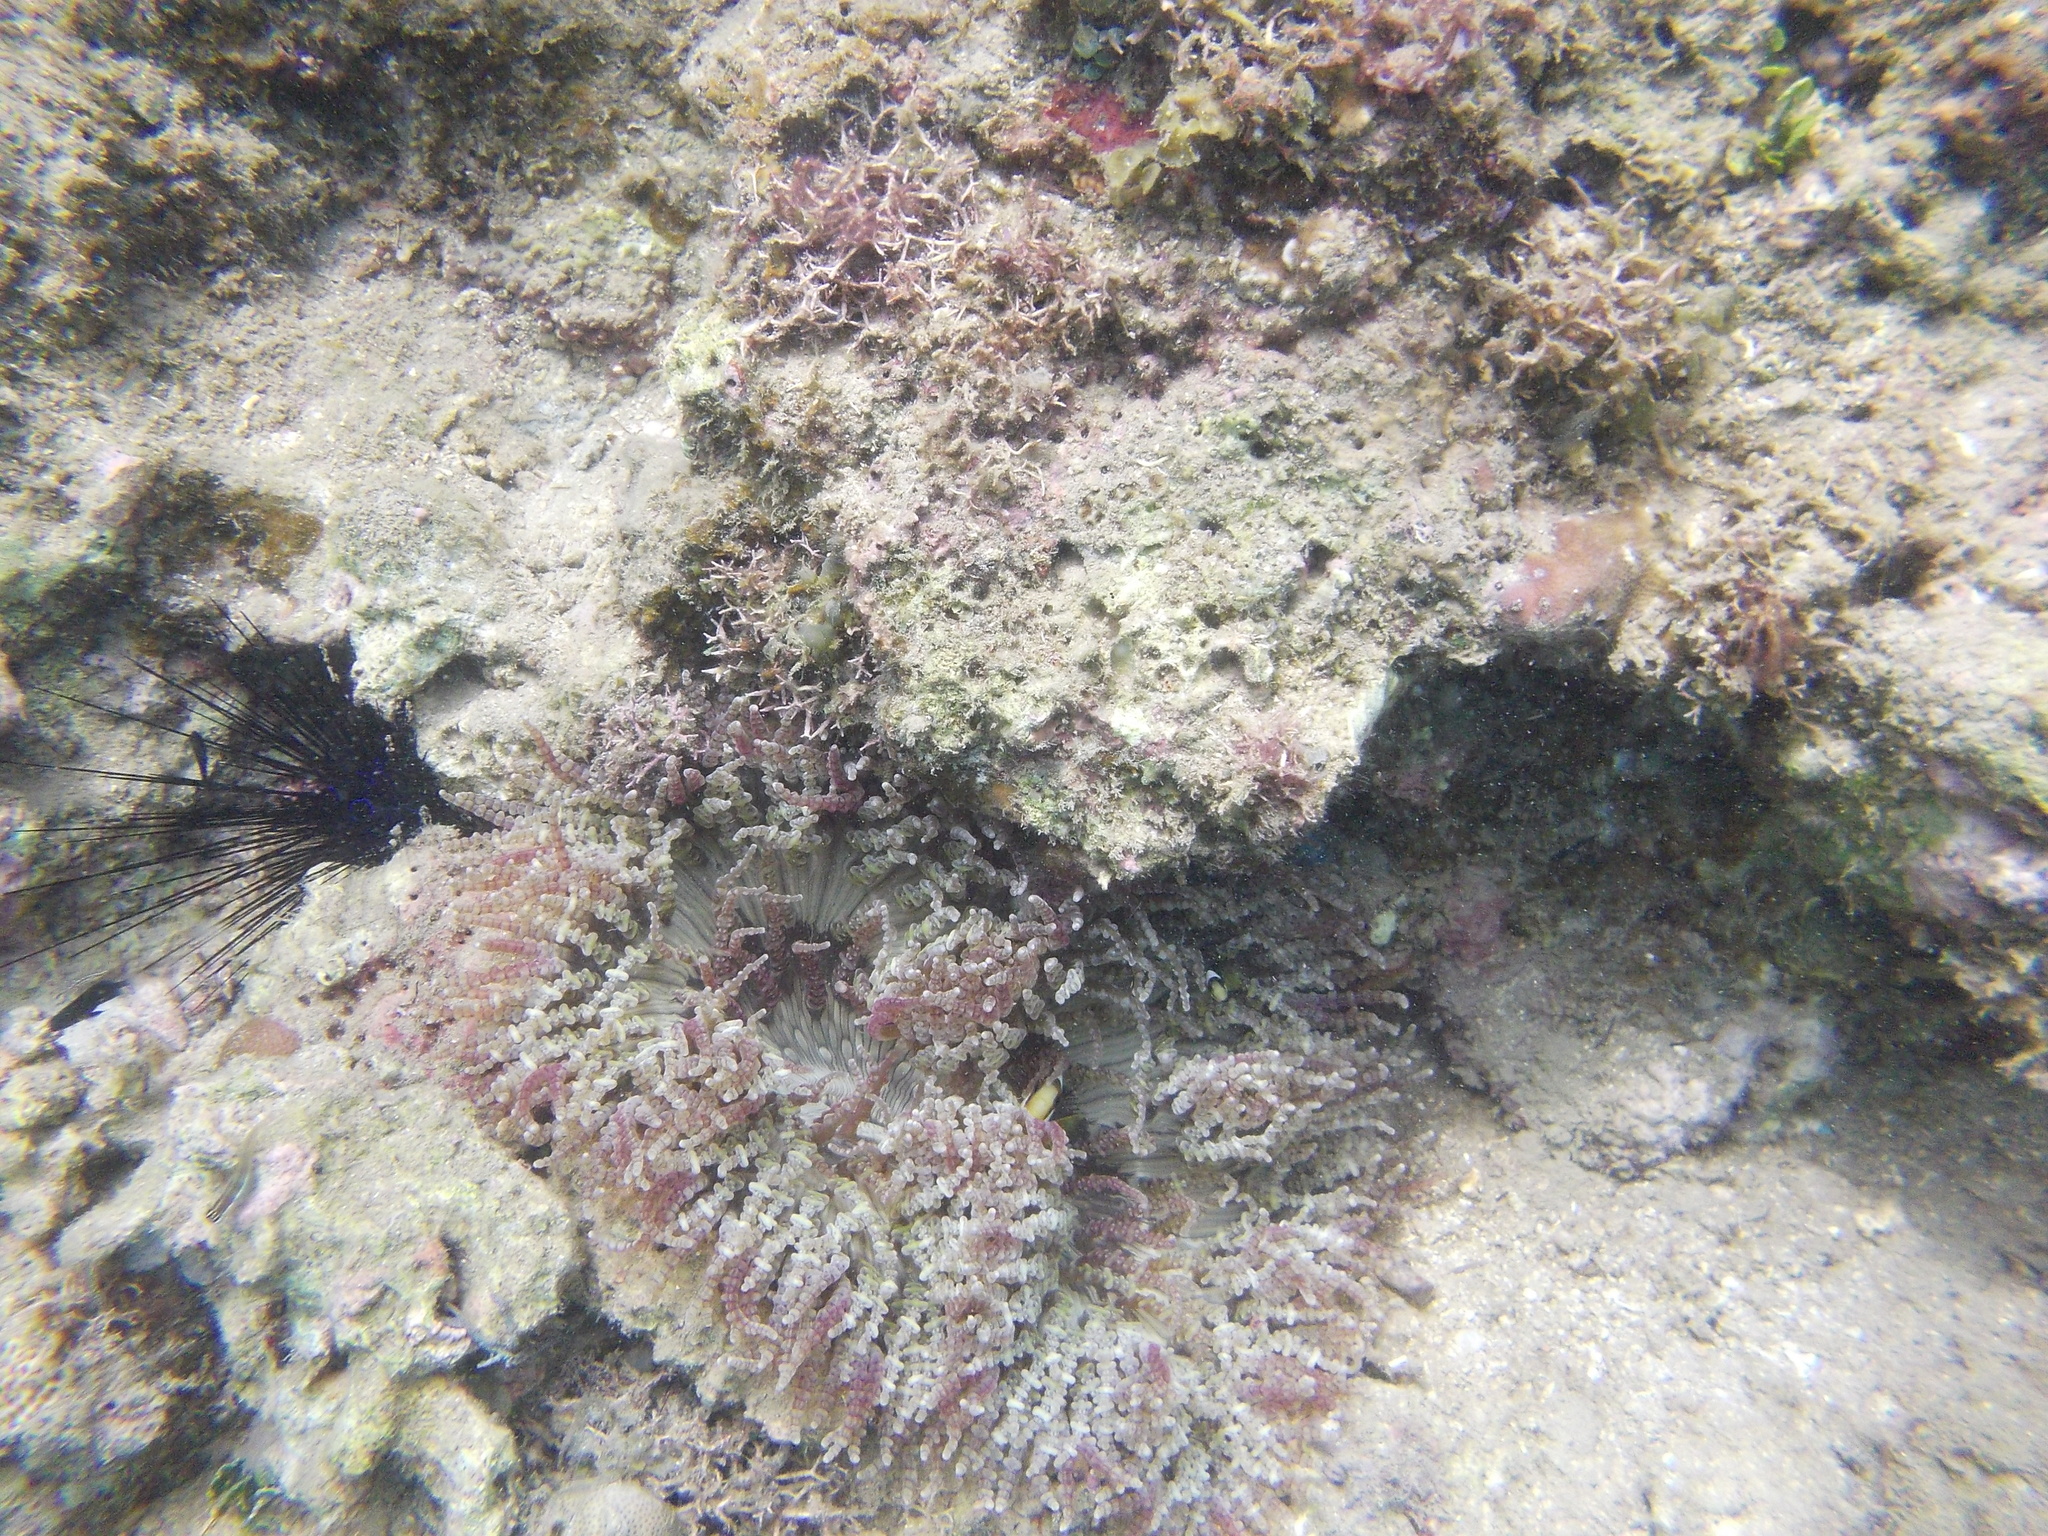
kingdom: Animalia
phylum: Cnidaria
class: Anthozoa
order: Actiniaria
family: Heteractidae
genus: Heteractis
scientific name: Heteractis aurora
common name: Beaded sea anemone
